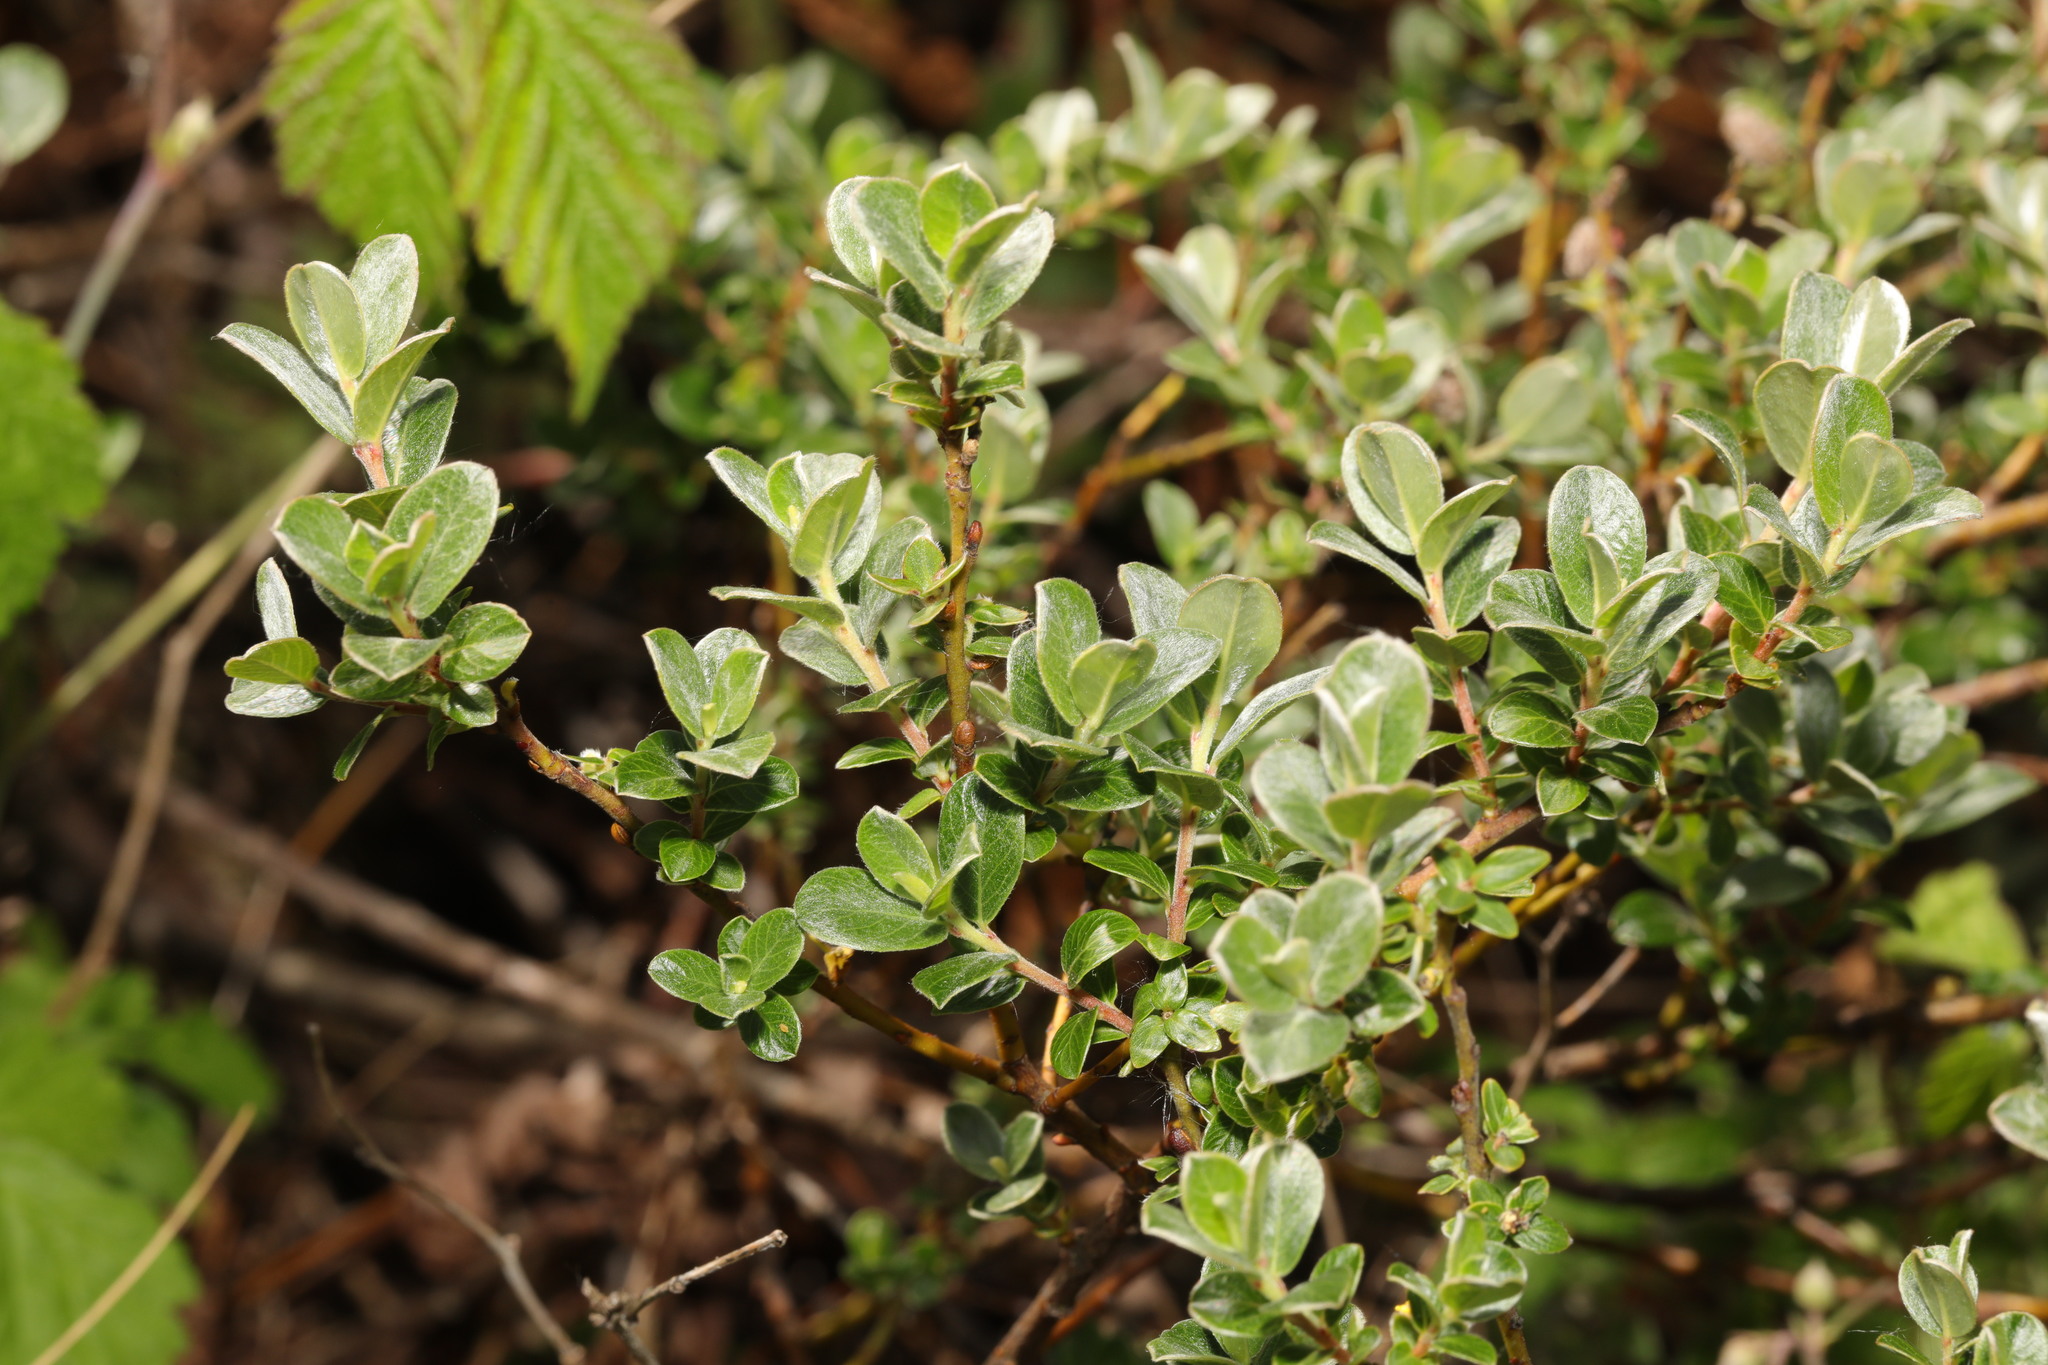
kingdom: Plantae
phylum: Tracheophyta
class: Magnoliopsida
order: Malpighiales
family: Salicaceae
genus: Salix
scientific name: Salix repens
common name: Creeping willow
